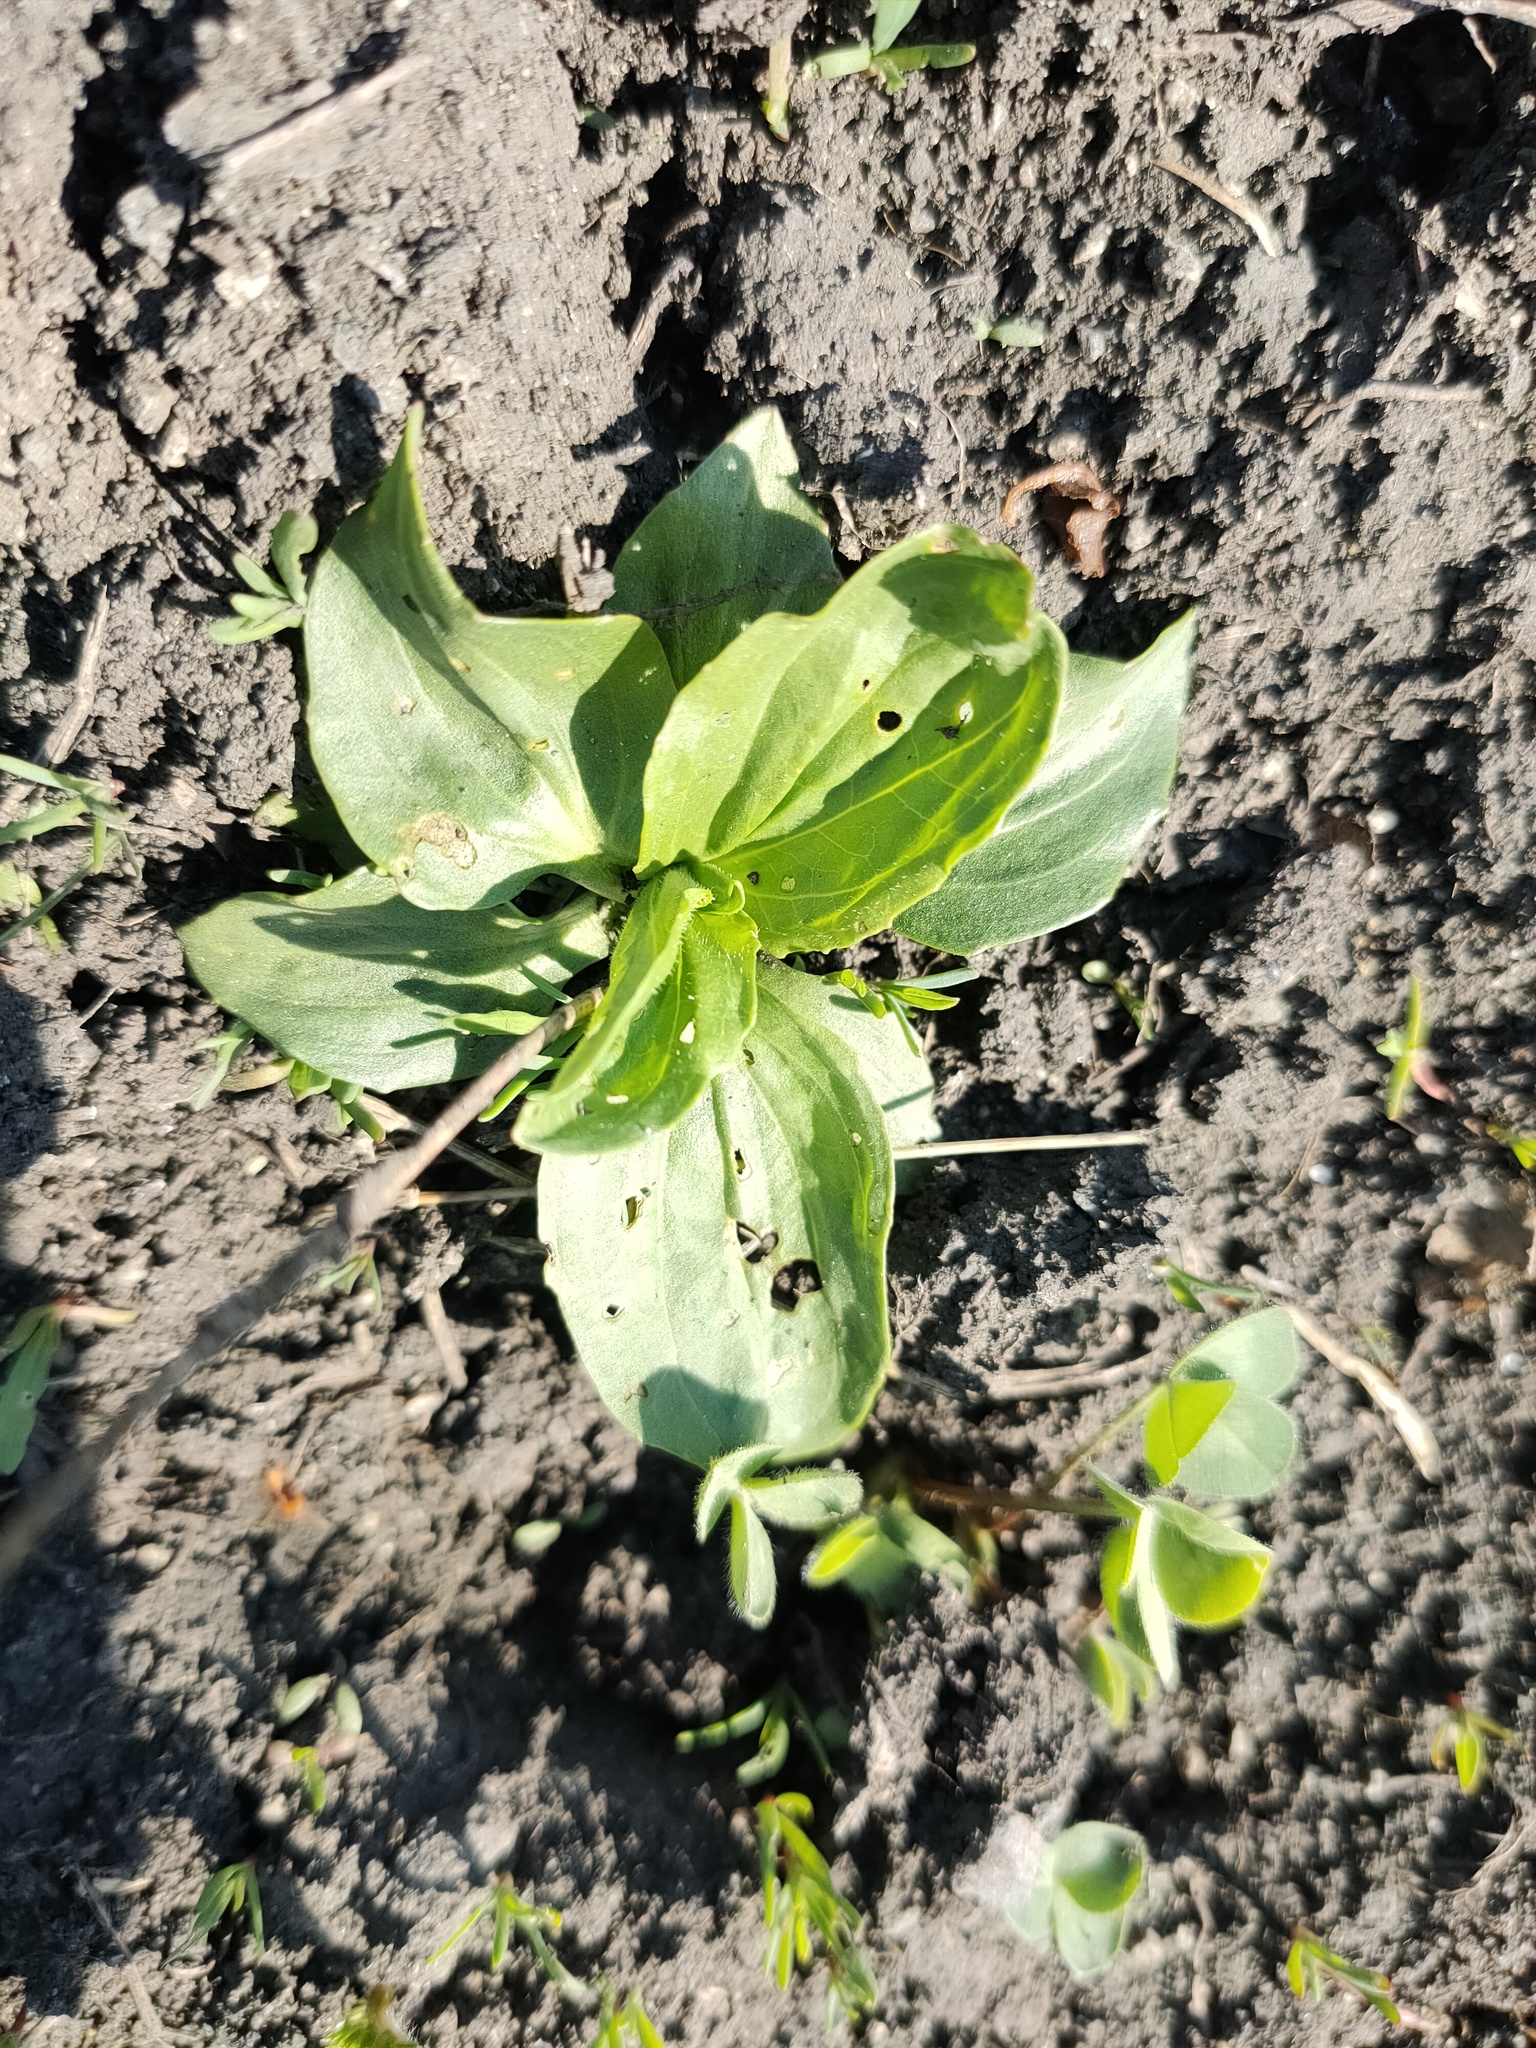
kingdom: Plantae
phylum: Tracheophyta
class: Magnoliopsida
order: Lamiales
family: Plantaginaceae
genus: Plantago
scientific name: Plantago major
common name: Common plantain
